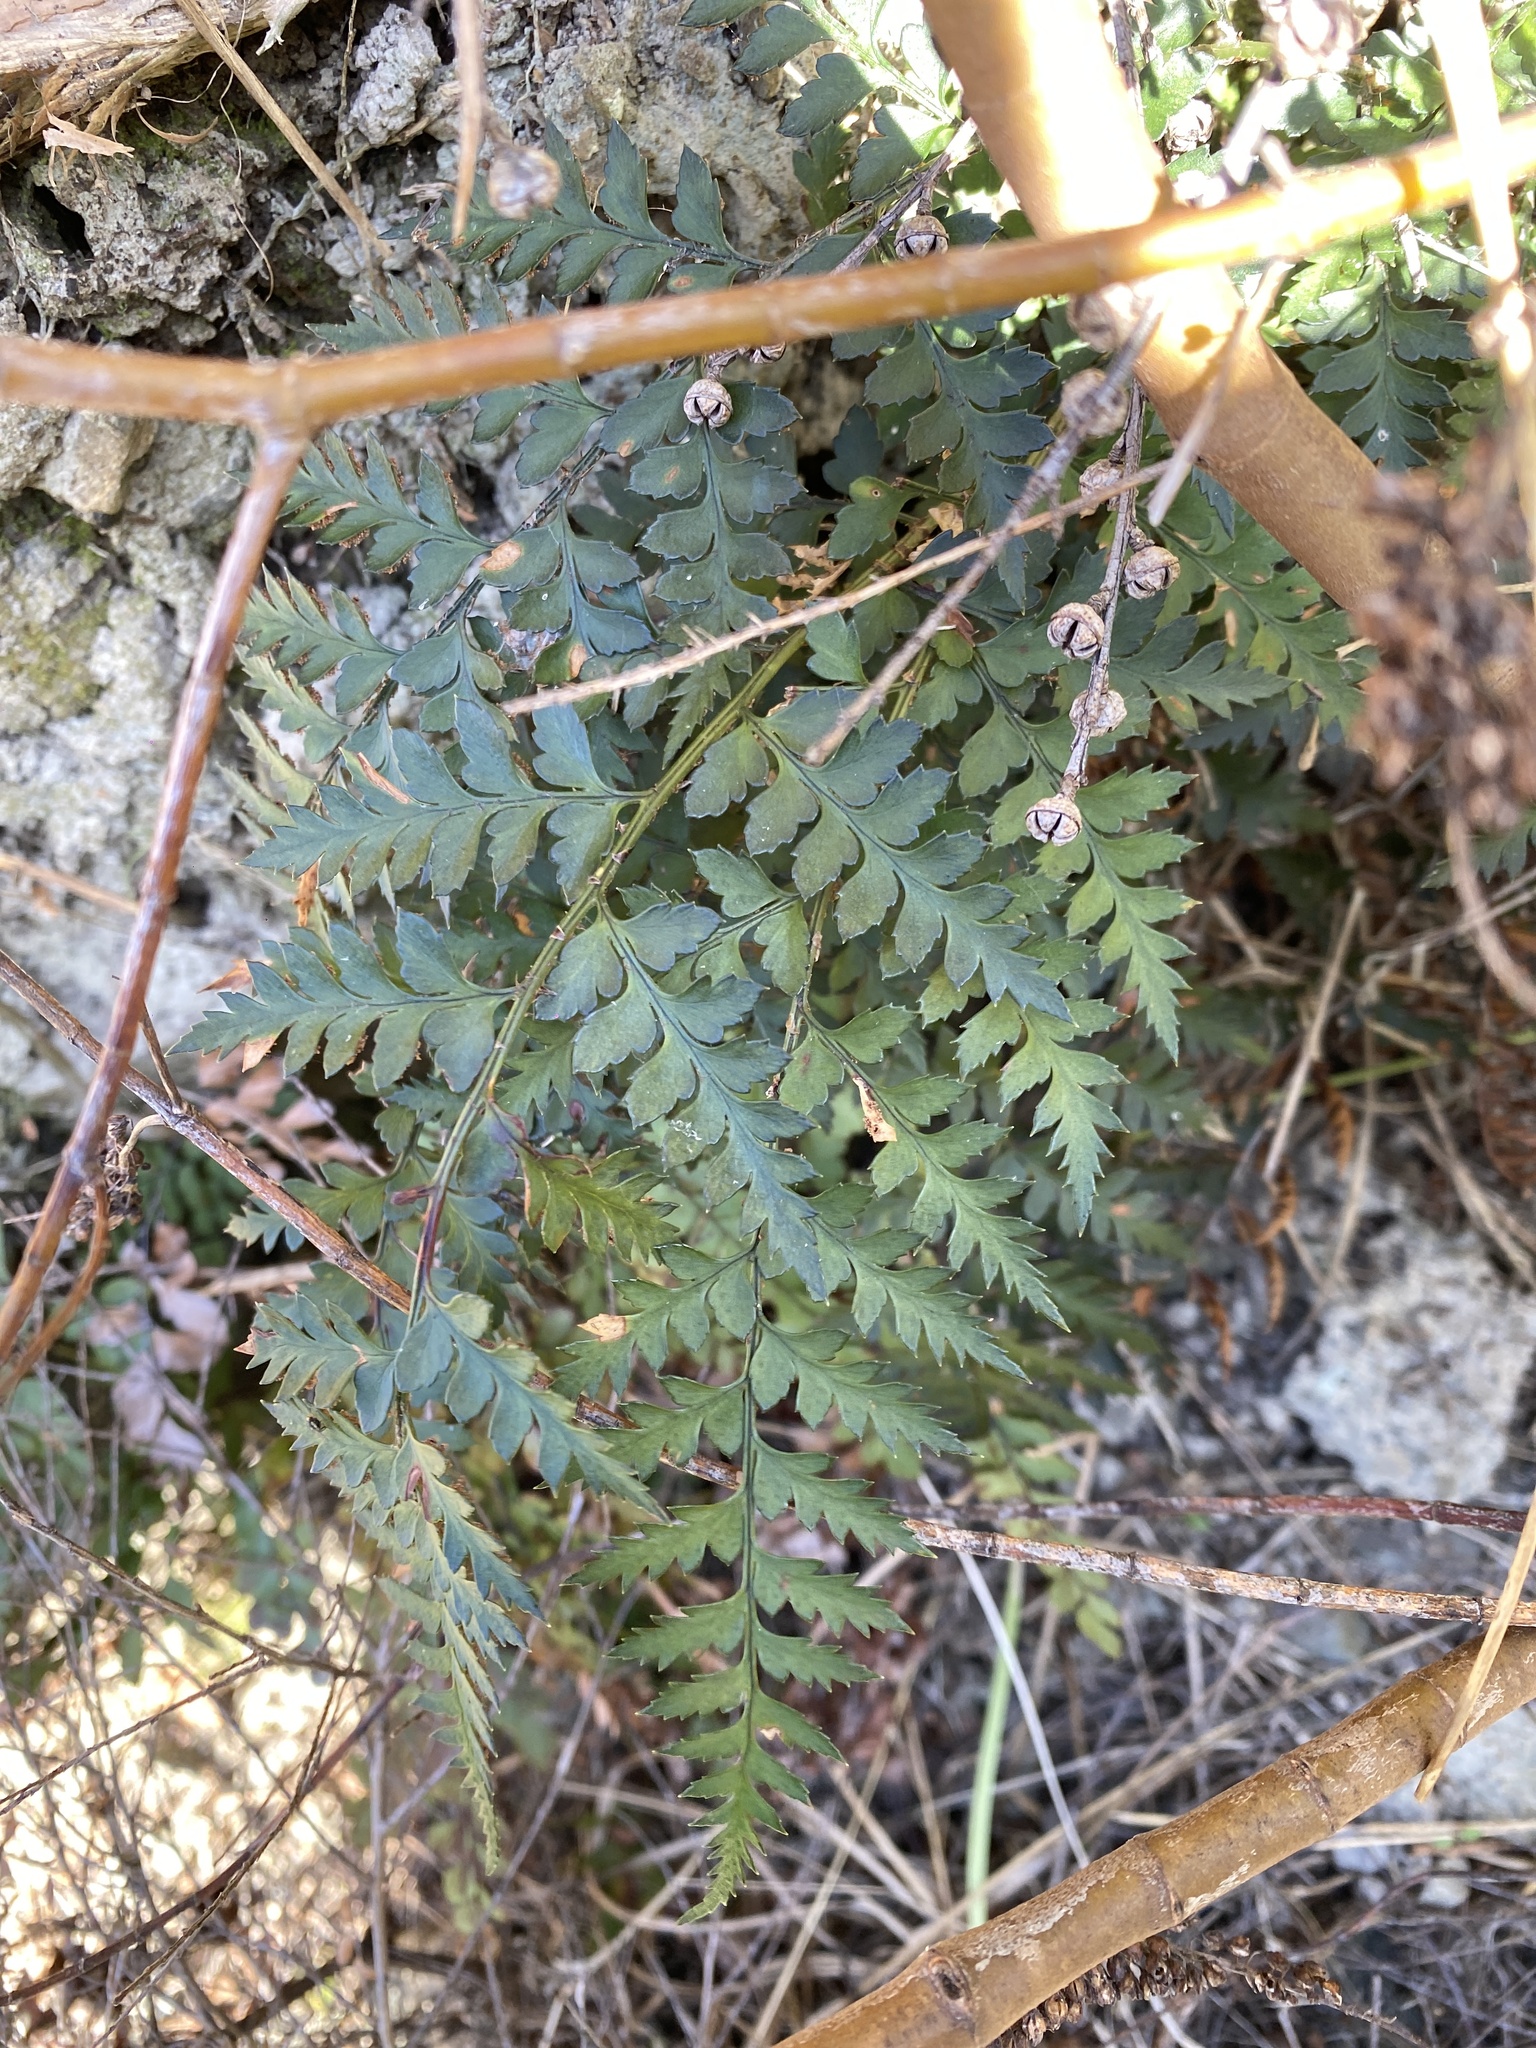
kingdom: Plantae
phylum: Tracheophyta
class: Polypodiopsida
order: Polypodiales
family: Dryopteridaceae
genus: Polystichum
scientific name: Polystichum oculatum
